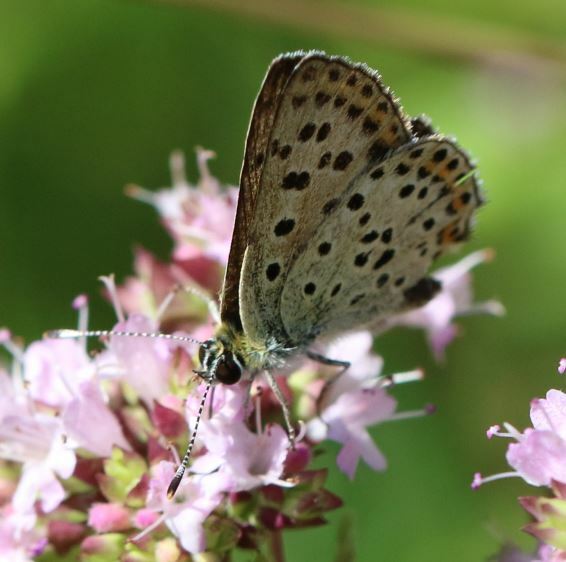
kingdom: Animalia
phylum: Arthropoda
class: Insecta
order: Lepidoptera
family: Lycaenidae
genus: Loweia
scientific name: Loweia tityrus
